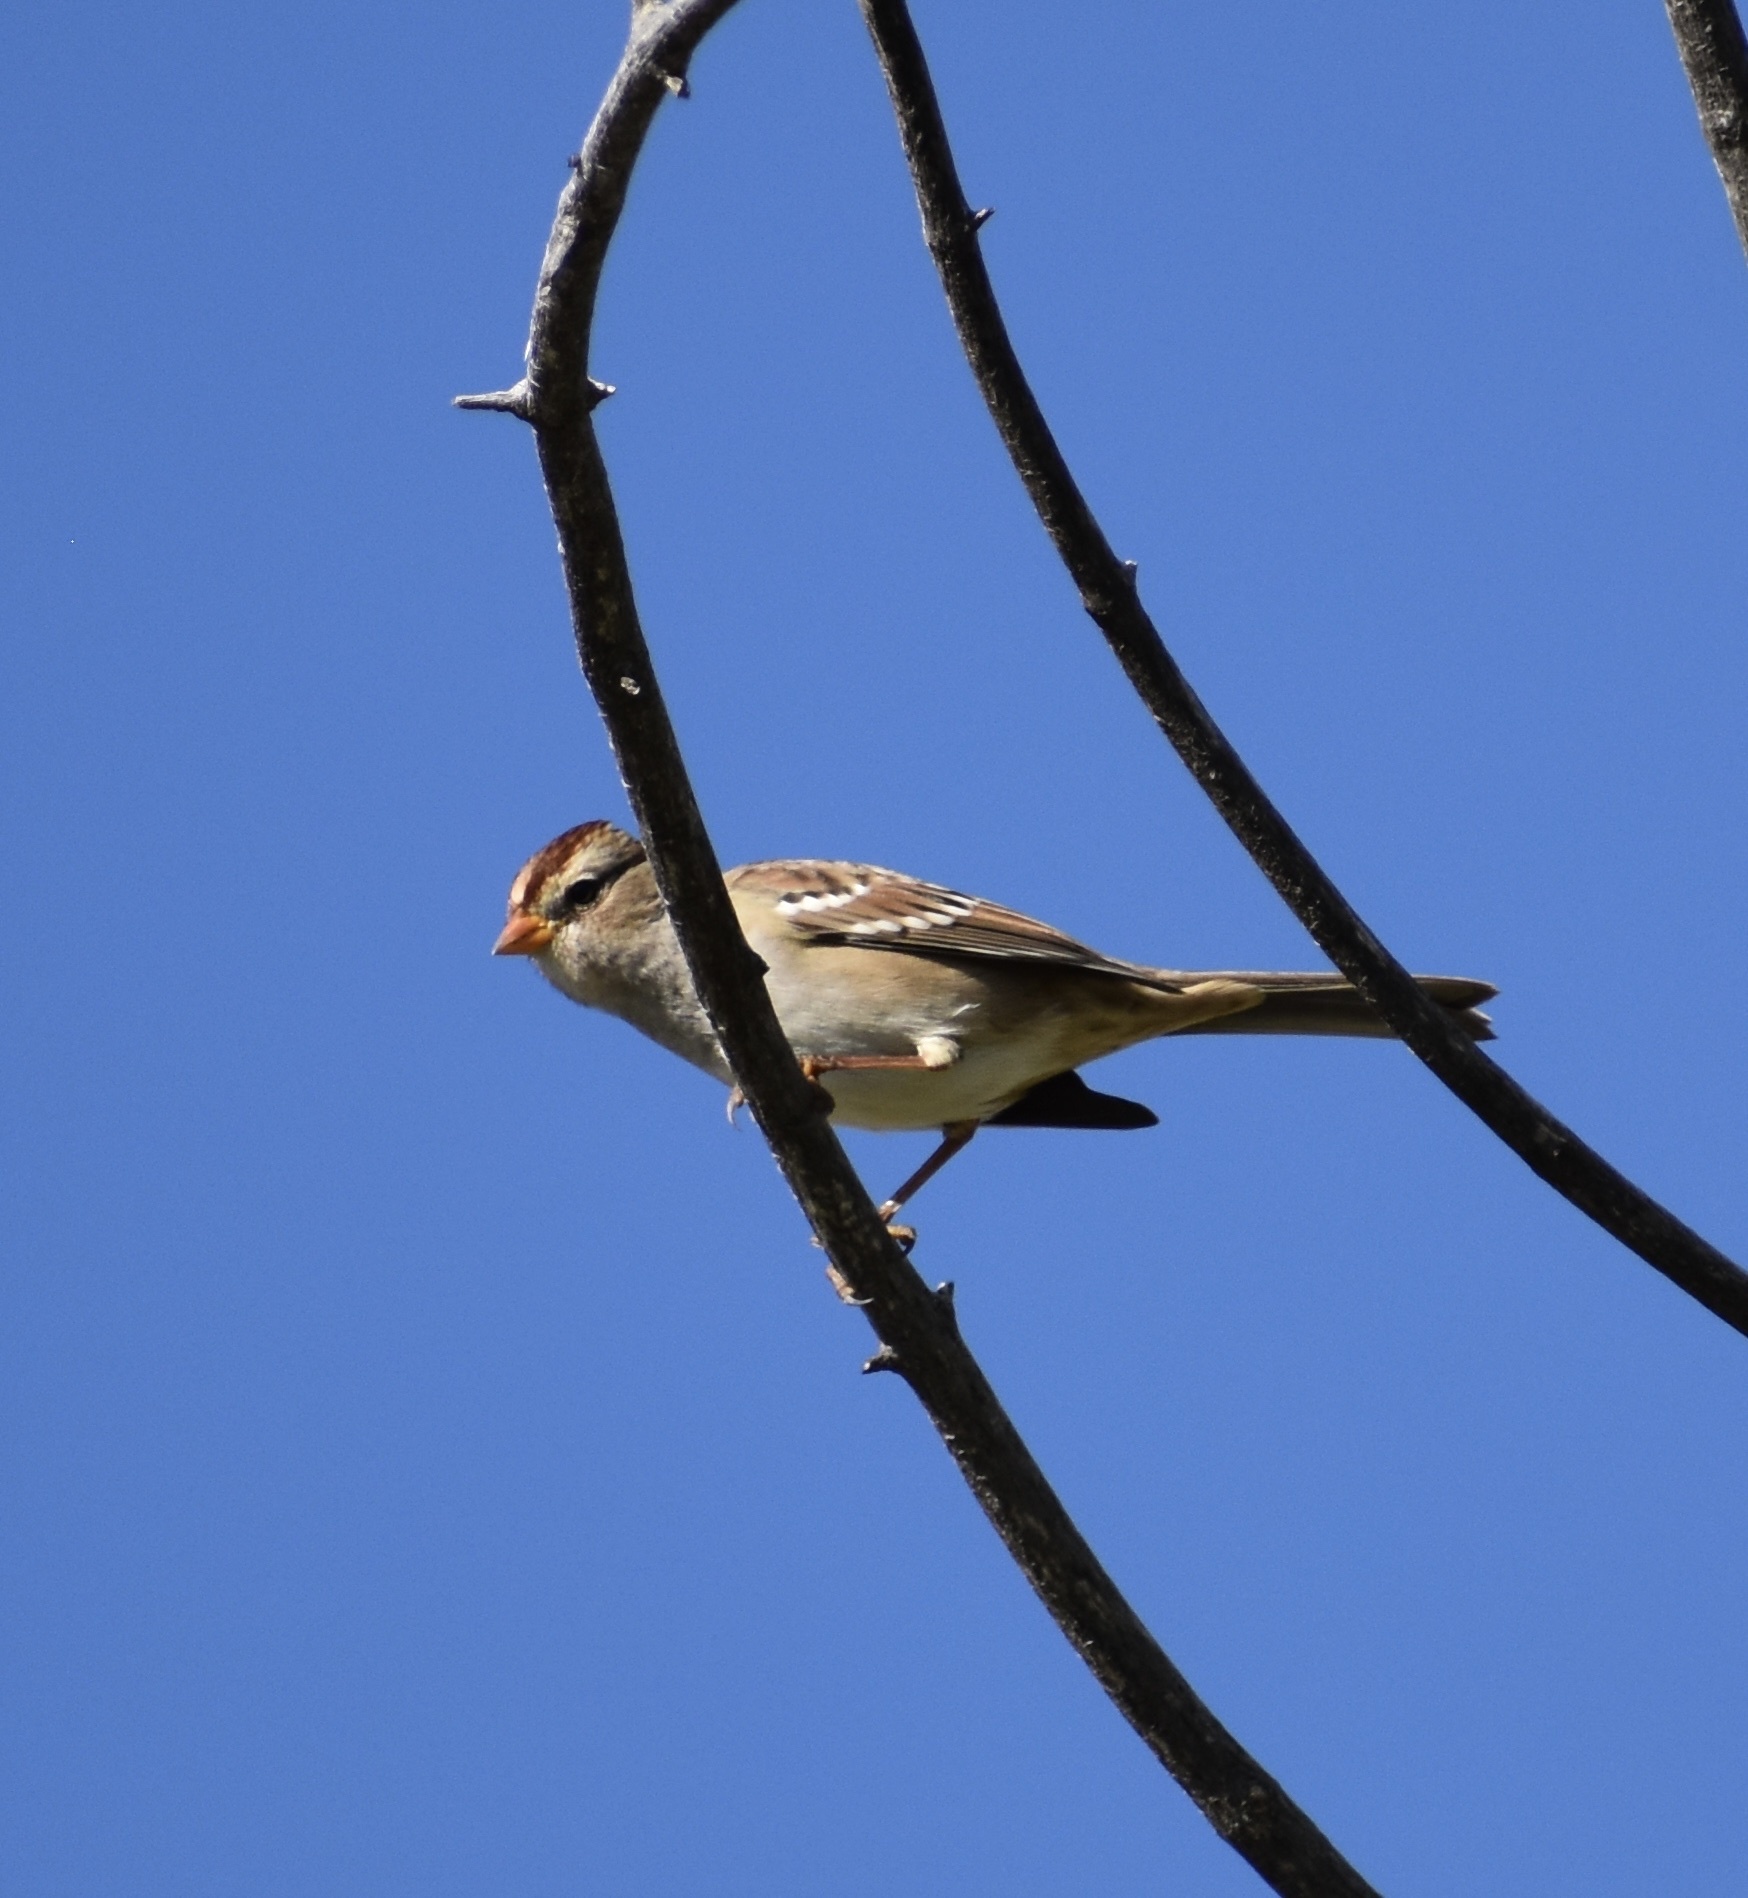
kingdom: Animalia
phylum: Chordata
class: Aves
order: Passeriformes
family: Passerellidae
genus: Zonotrichia
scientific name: Zonotrichia leucophrys
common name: White-crowned sparrow
